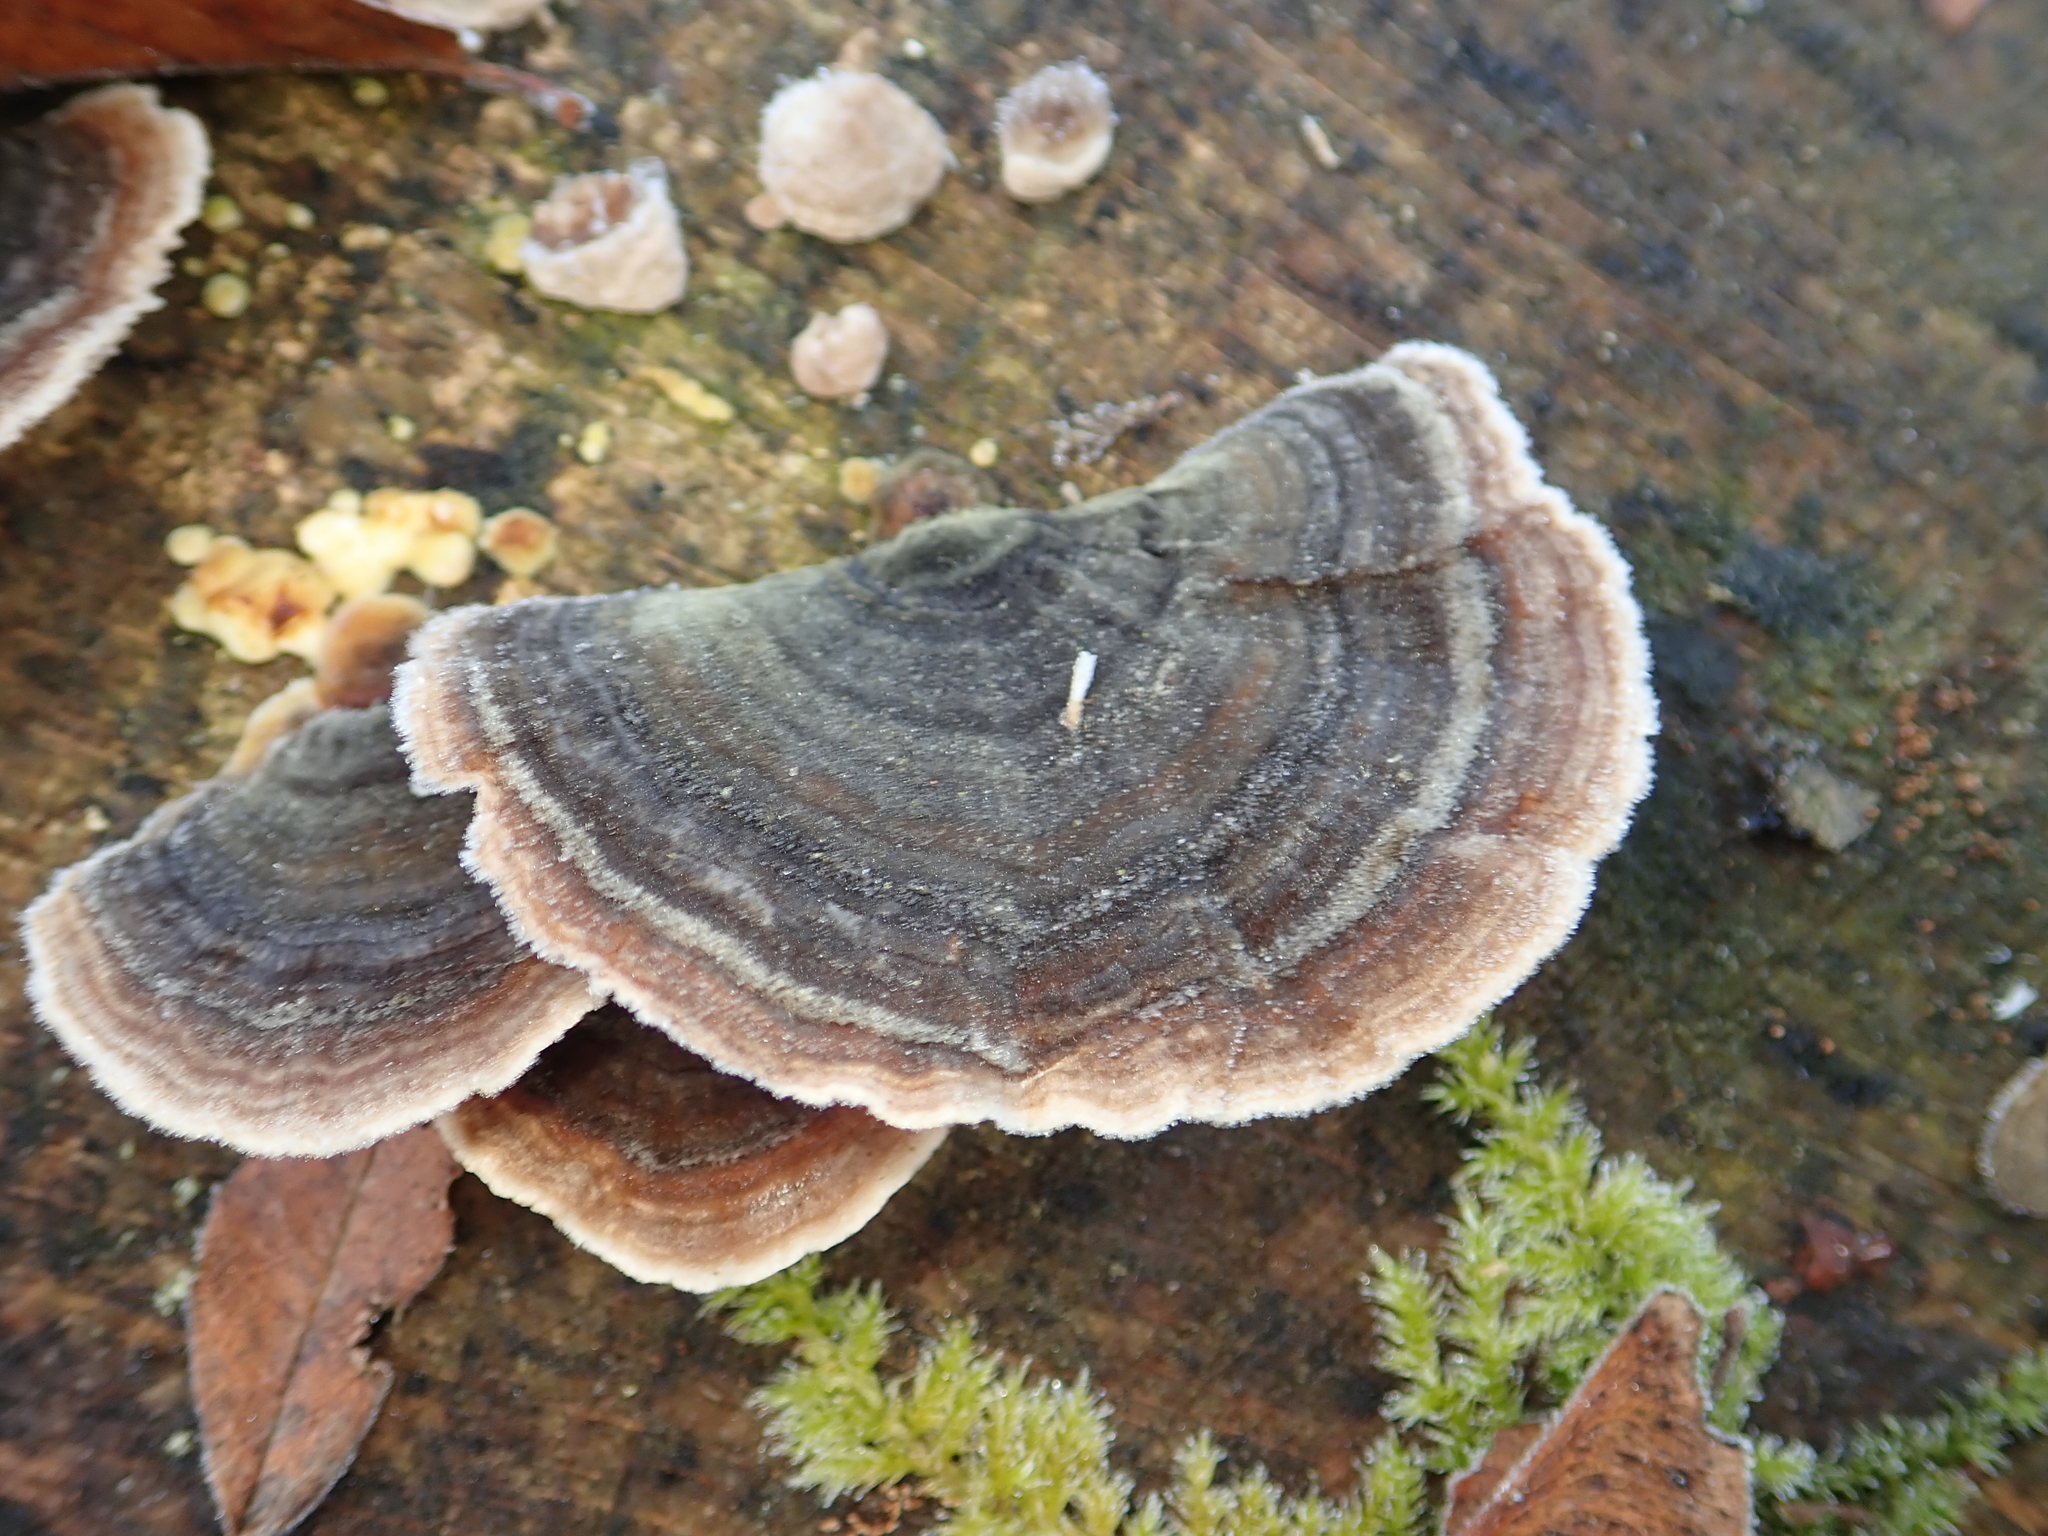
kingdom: Fungi
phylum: Basidiomycota
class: Agaricomycetes
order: Polyporales
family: Polyporaceae
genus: Trametes
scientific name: Trametes versicolor
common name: Turkeytail
